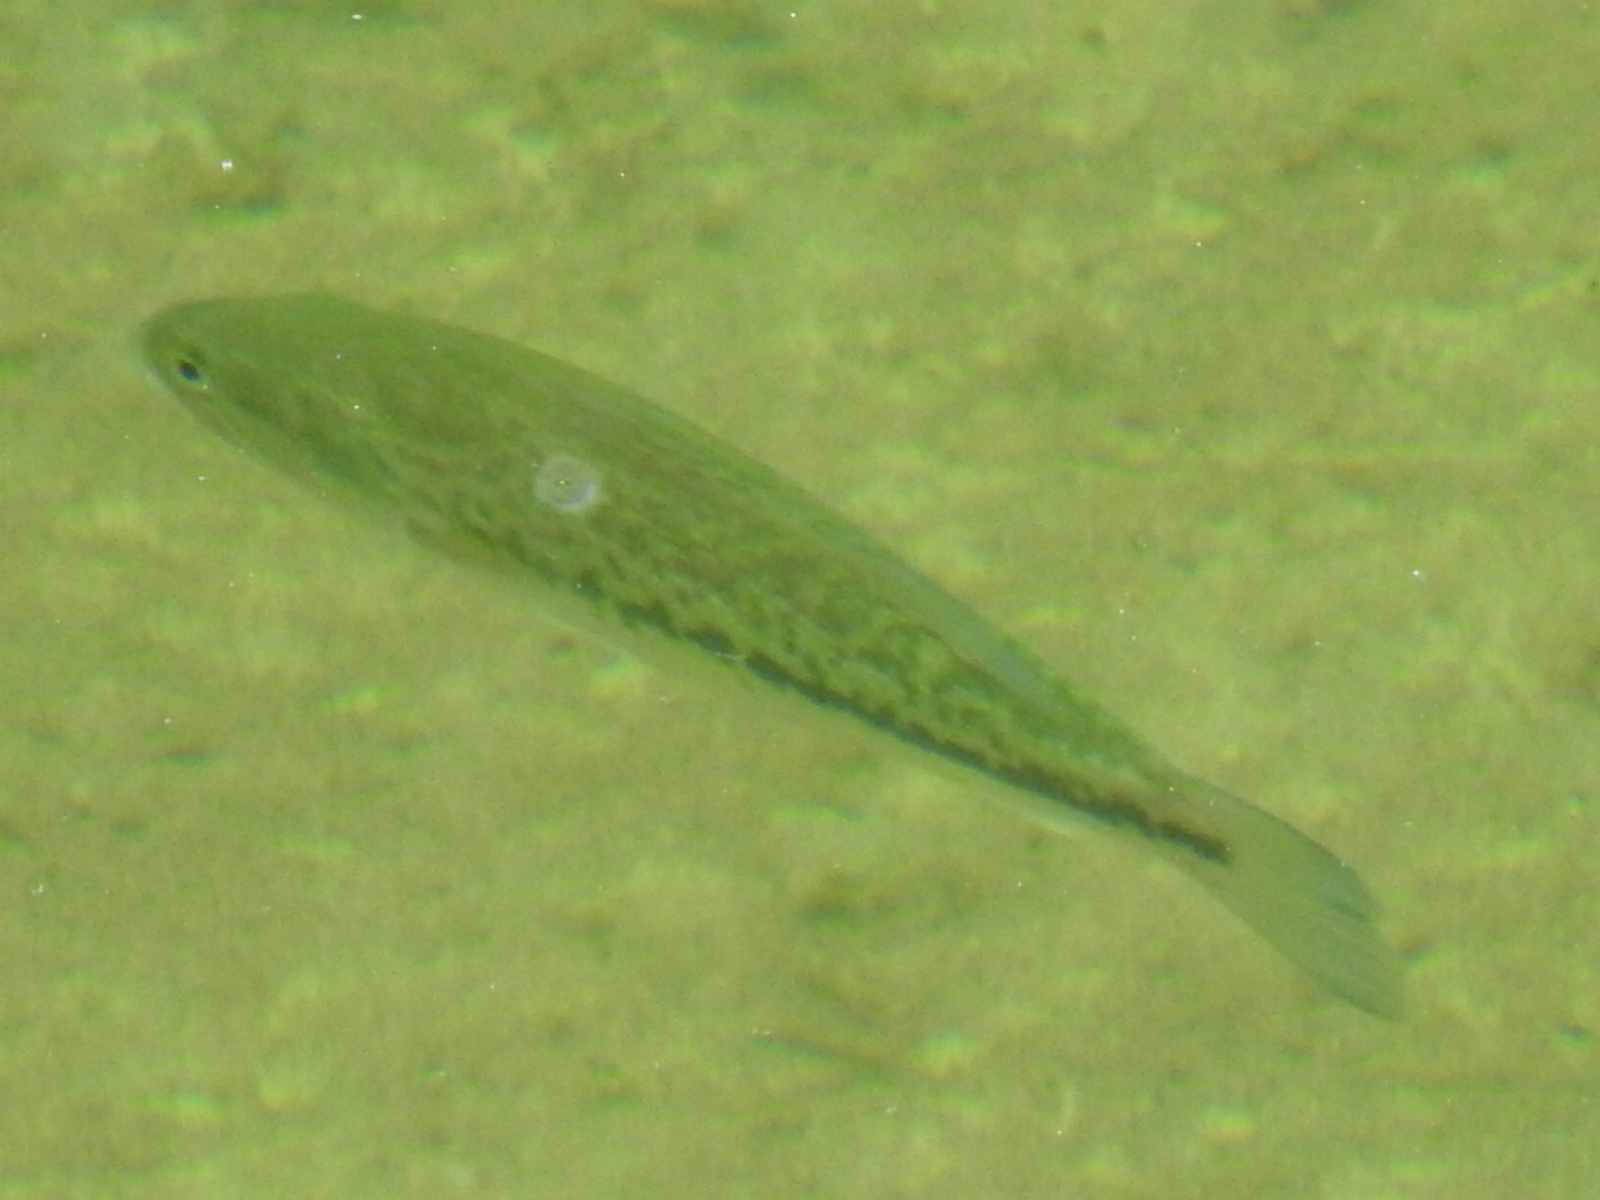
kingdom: Animalia
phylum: Chordata
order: Perciformes
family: Centrarchidae
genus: Micropterus
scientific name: Micropterus
